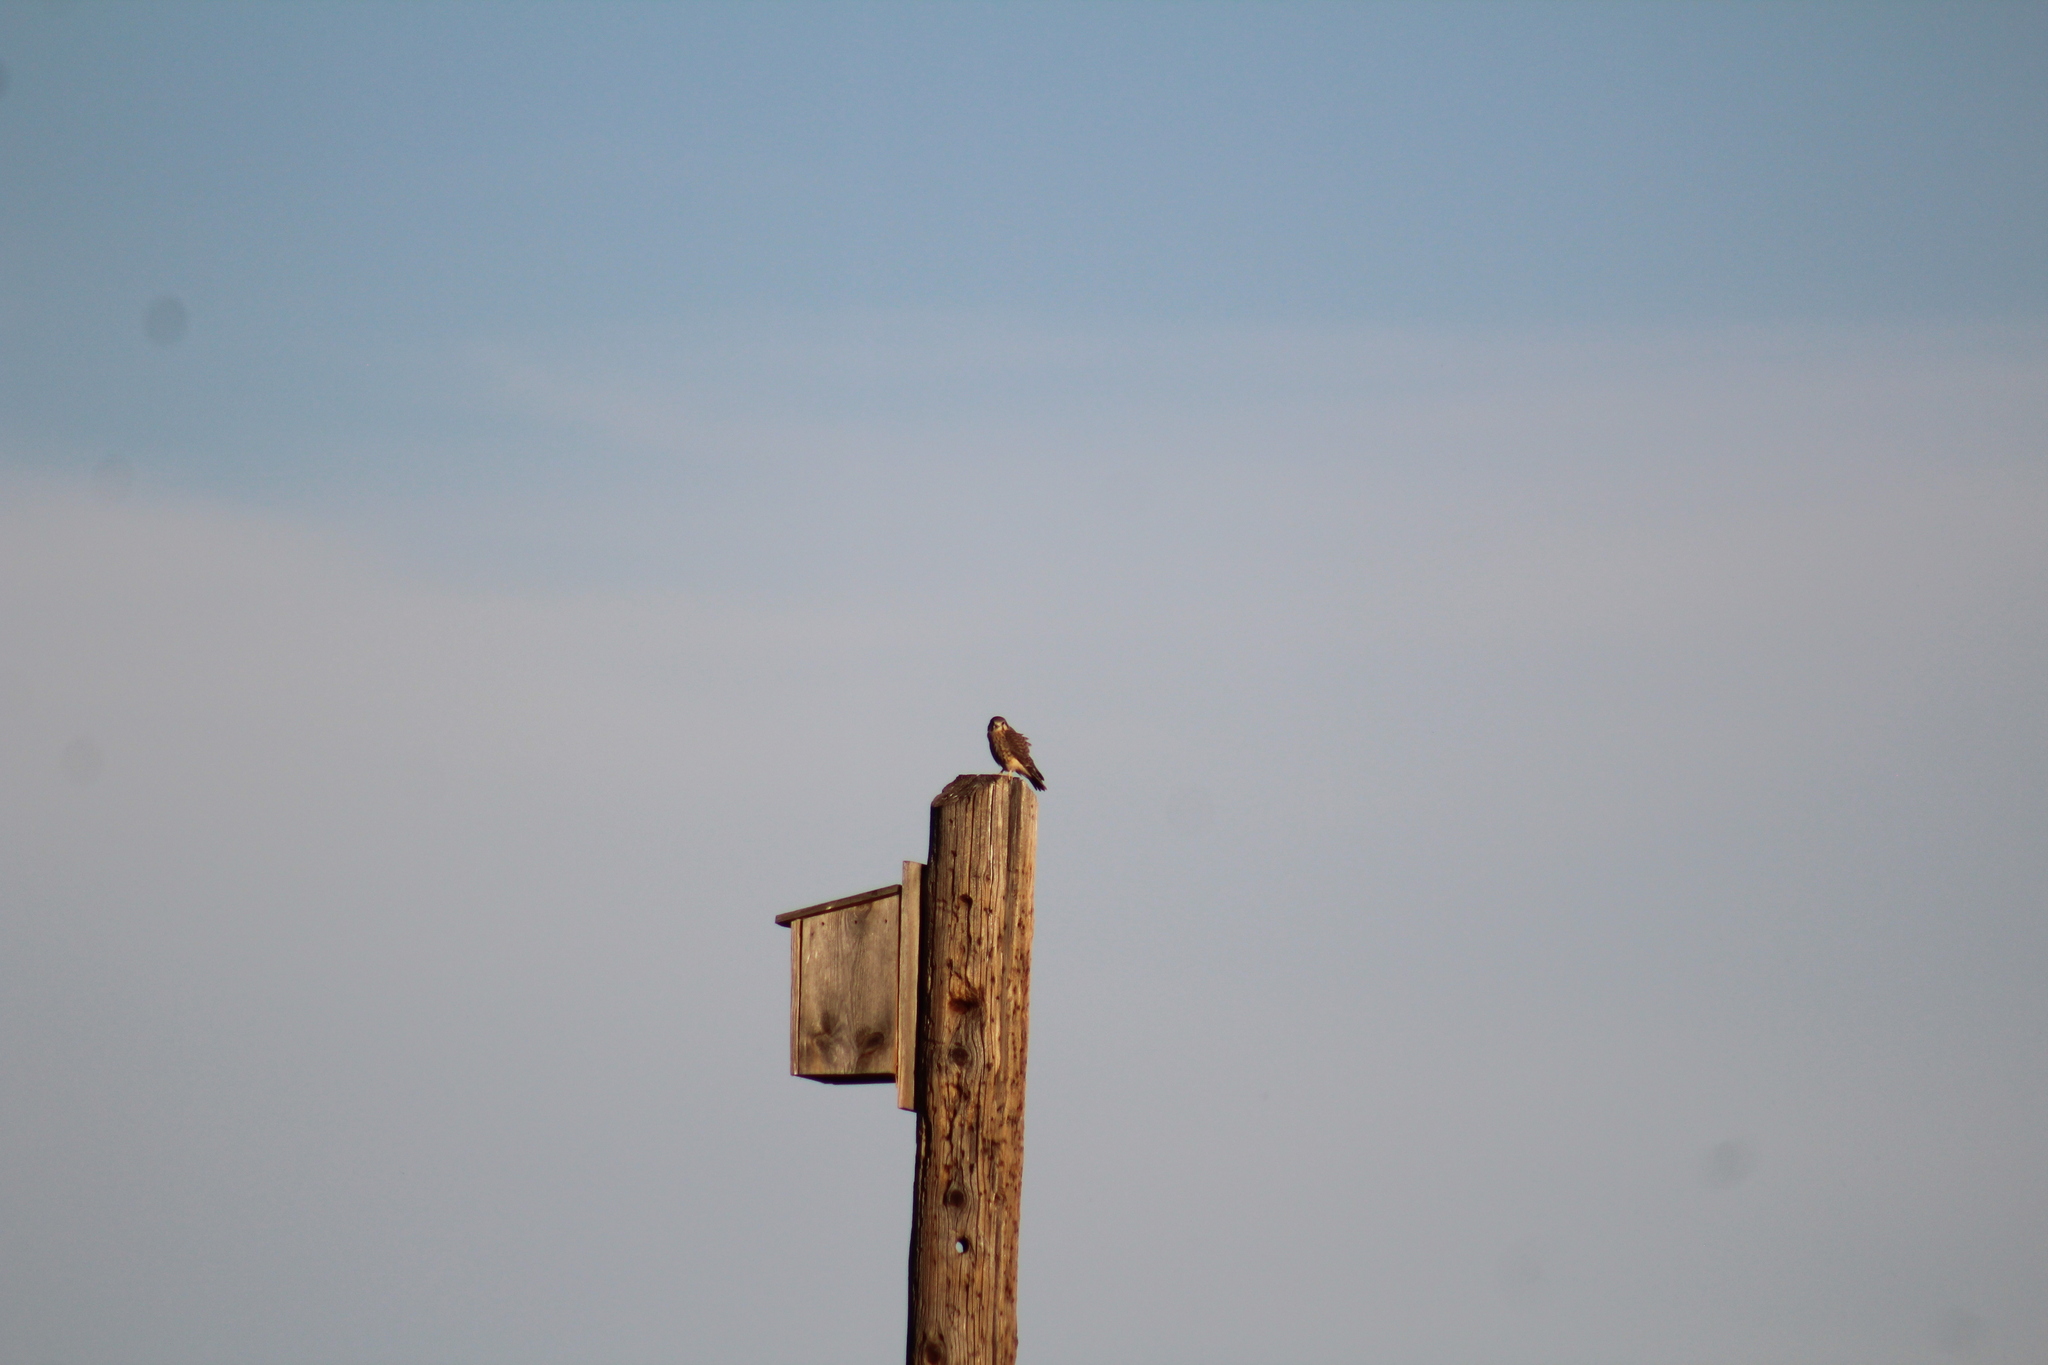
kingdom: Animalia
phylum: Chordata
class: Aves
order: Falconiformes
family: Falconidae
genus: Falco
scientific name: Falco sparverius
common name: American kestrel
